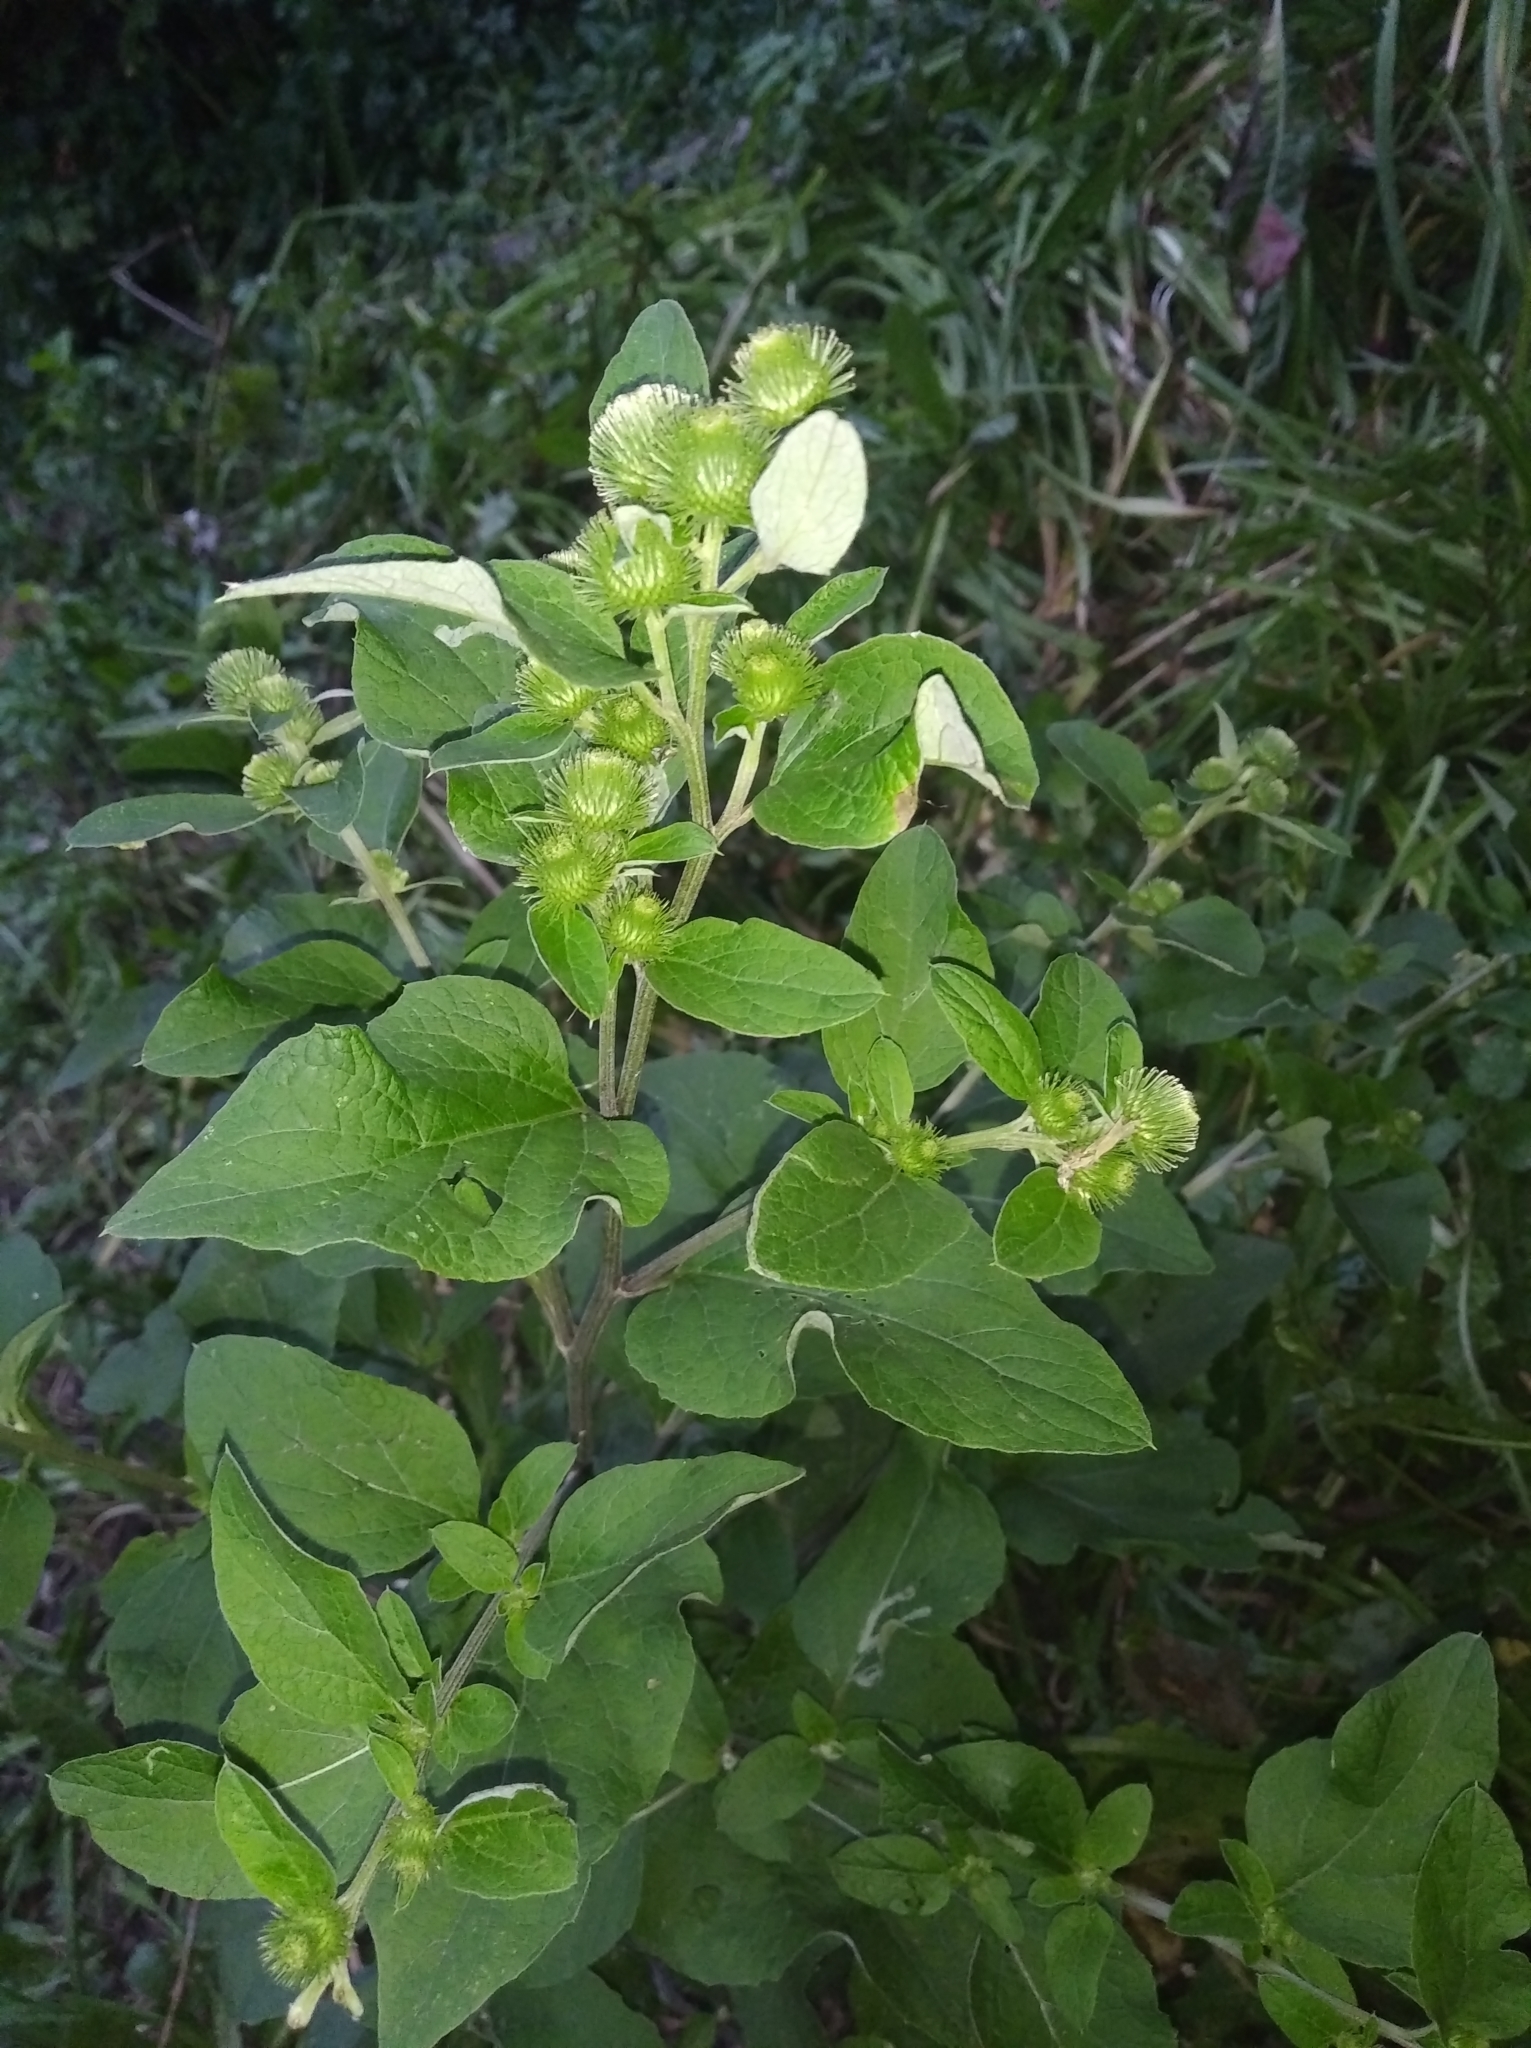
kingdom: Plantae
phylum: Tracheophyta
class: Magnoliopsida
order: Asterales
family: Asteraceae
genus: Arctium
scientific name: Arctium minus
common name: Lesser burdock
